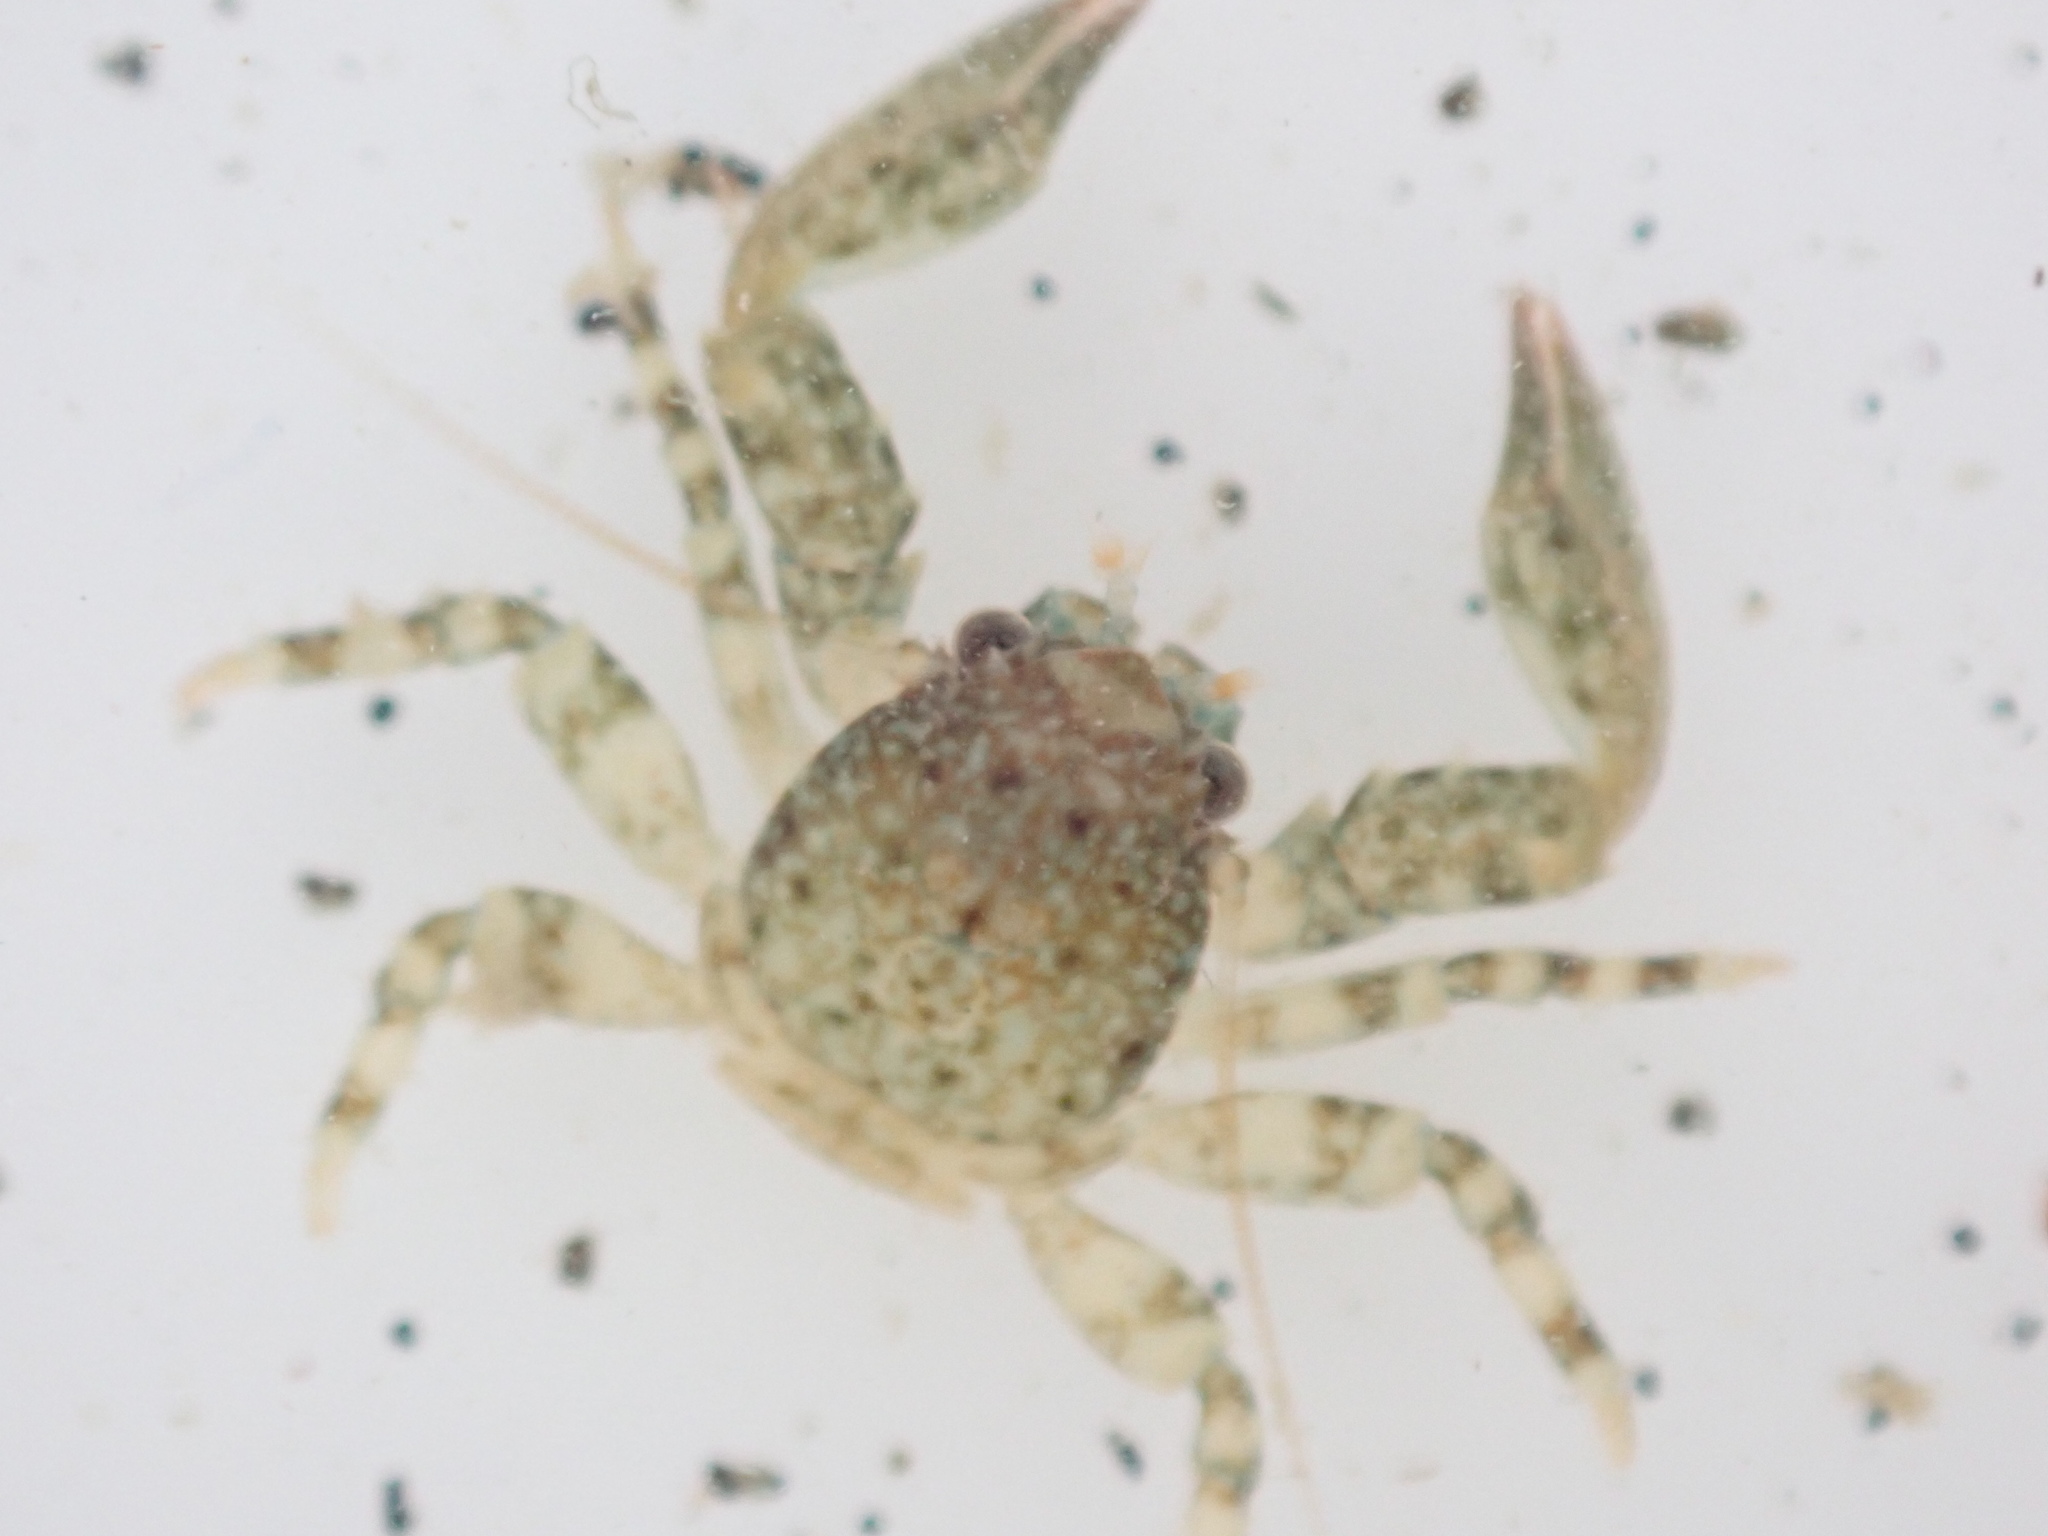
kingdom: Animalia
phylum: Arthropoda
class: Malacostraca
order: Decapoda
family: Porcellanidae
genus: Petrolisthes
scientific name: Petrolisthes elongatus
